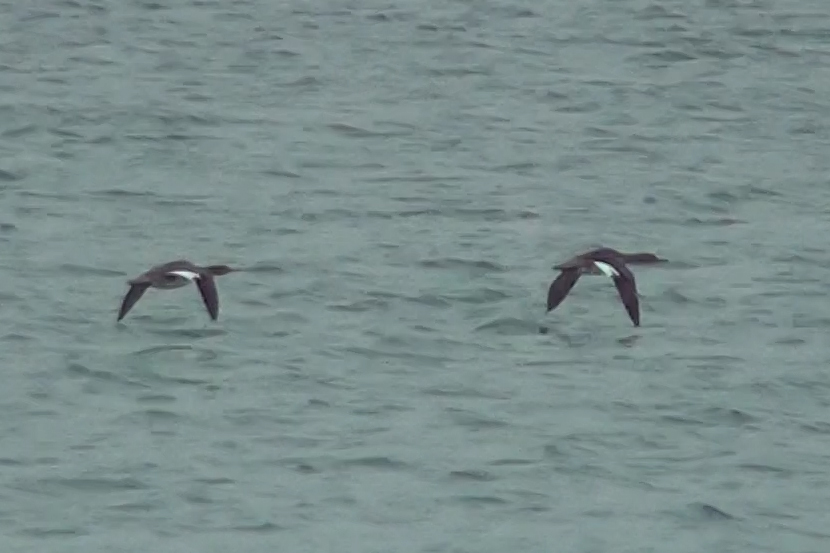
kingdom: Animalia
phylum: Chordata
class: Aves
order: Anseriformes
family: Anatidae
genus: Mergus
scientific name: Mergus serrator
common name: Red-breasted merganser
